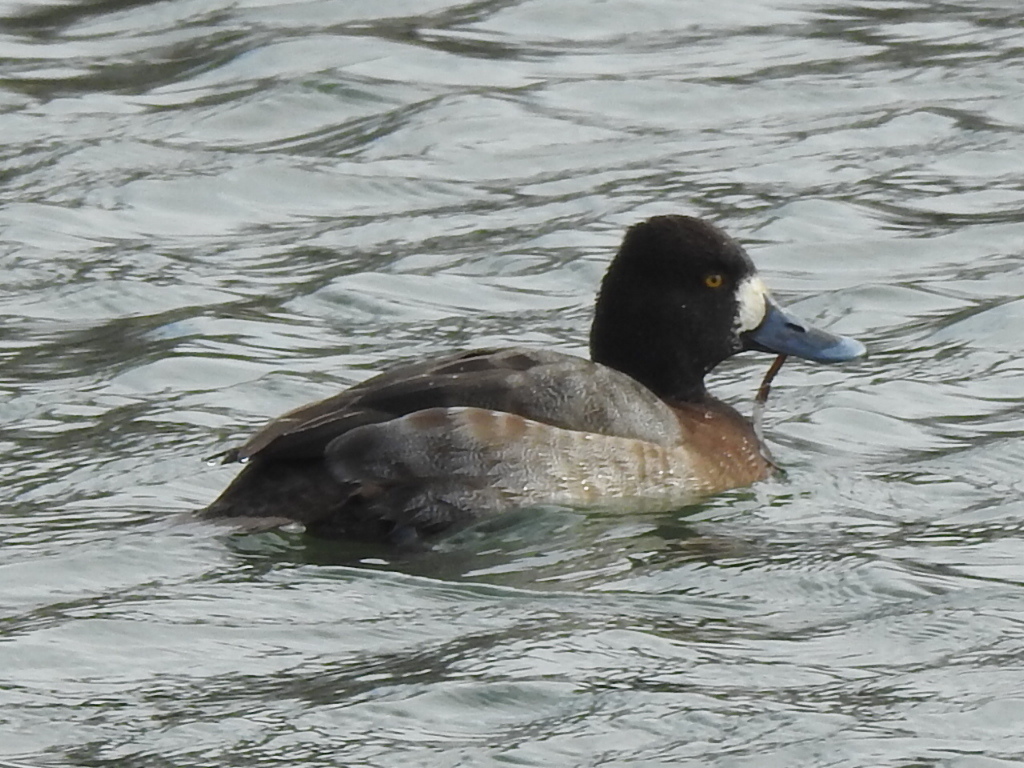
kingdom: Animalia
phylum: Chordata
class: Aves
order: Anseriformes
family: Anatidae
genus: Aythya
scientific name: Aythya affinis
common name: Lesser scaup
